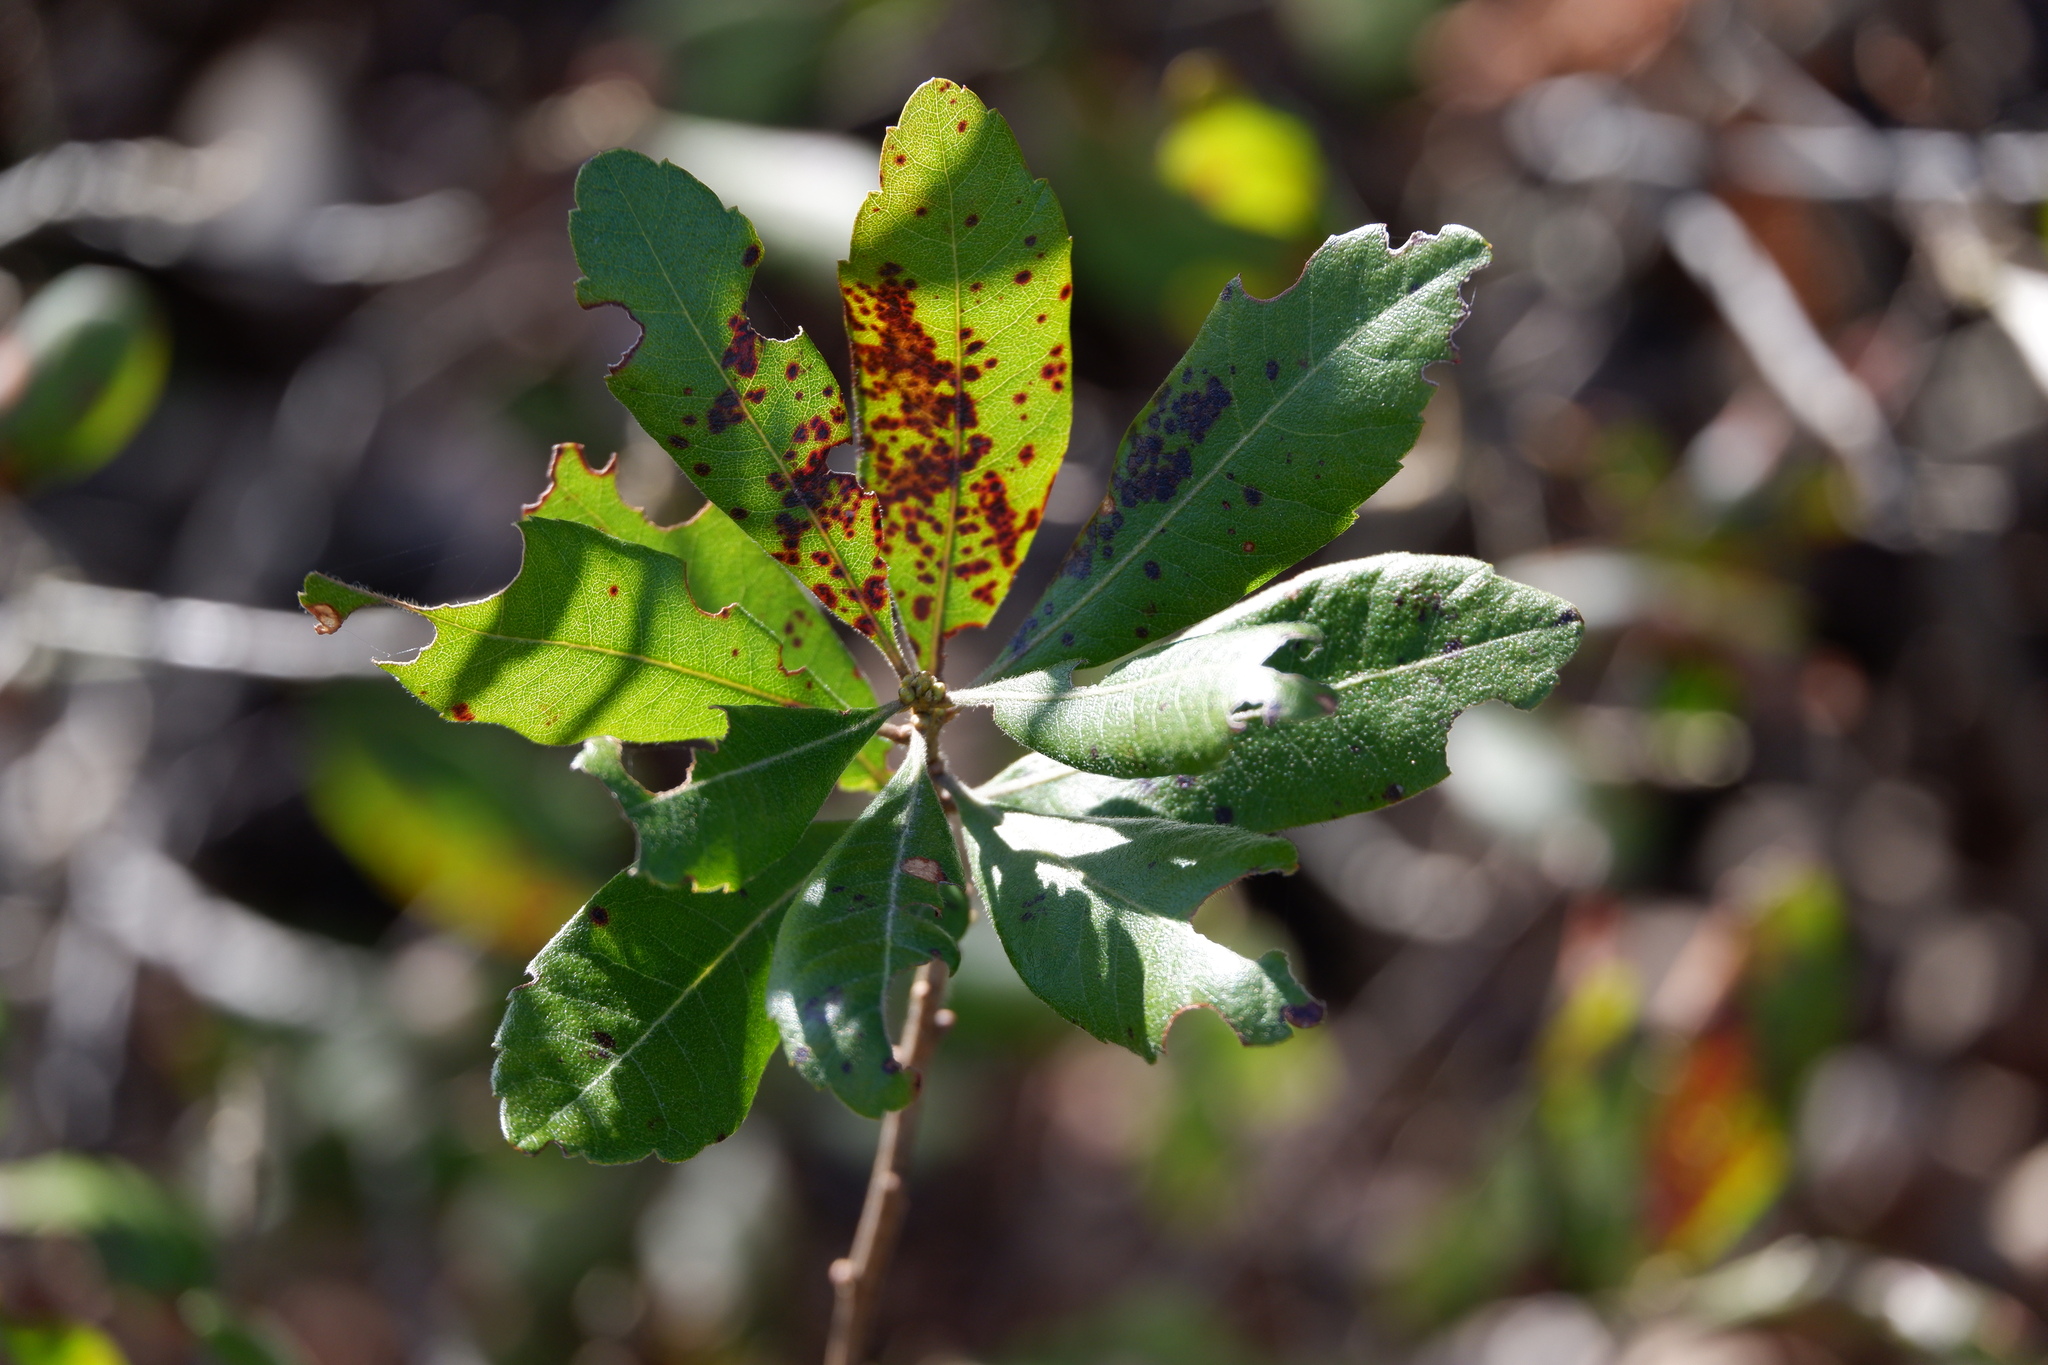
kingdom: Plantae
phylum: Tracheophyta
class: Magnoliopsida
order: Fagales
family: Myricaceae
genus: Morella
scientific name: Morella caroliniensis
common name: Evergreen bayberry
